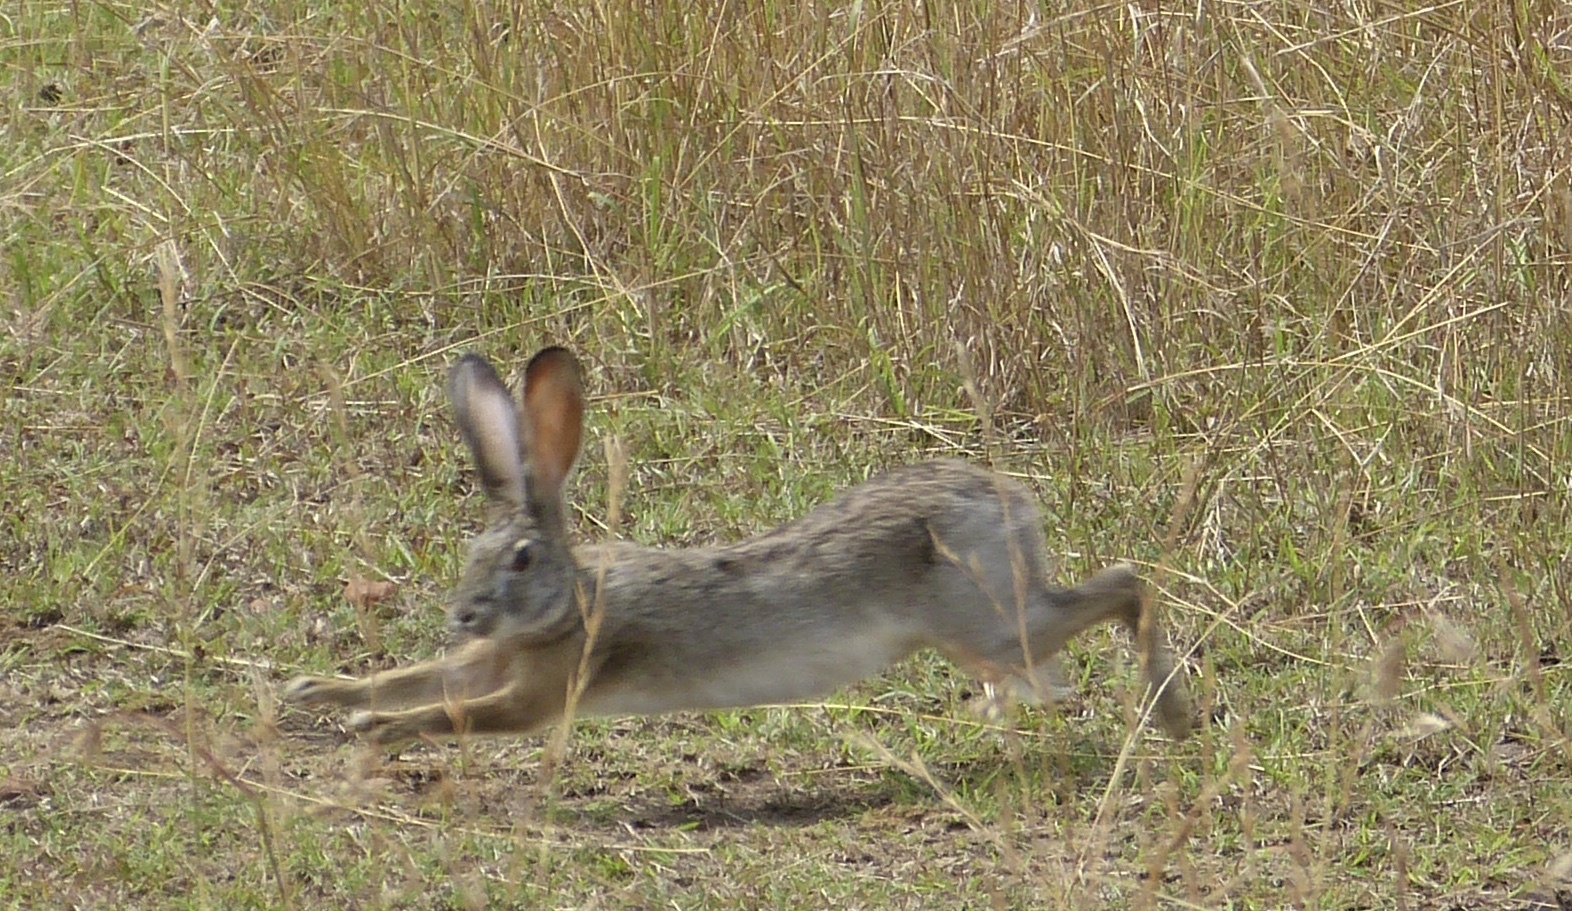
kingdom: Animalia
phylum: Chordata
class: Mammalia
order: Lagomorpha
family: Leporidae
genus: Lepus
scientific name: Lepus victoriae
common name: African savanna hare
